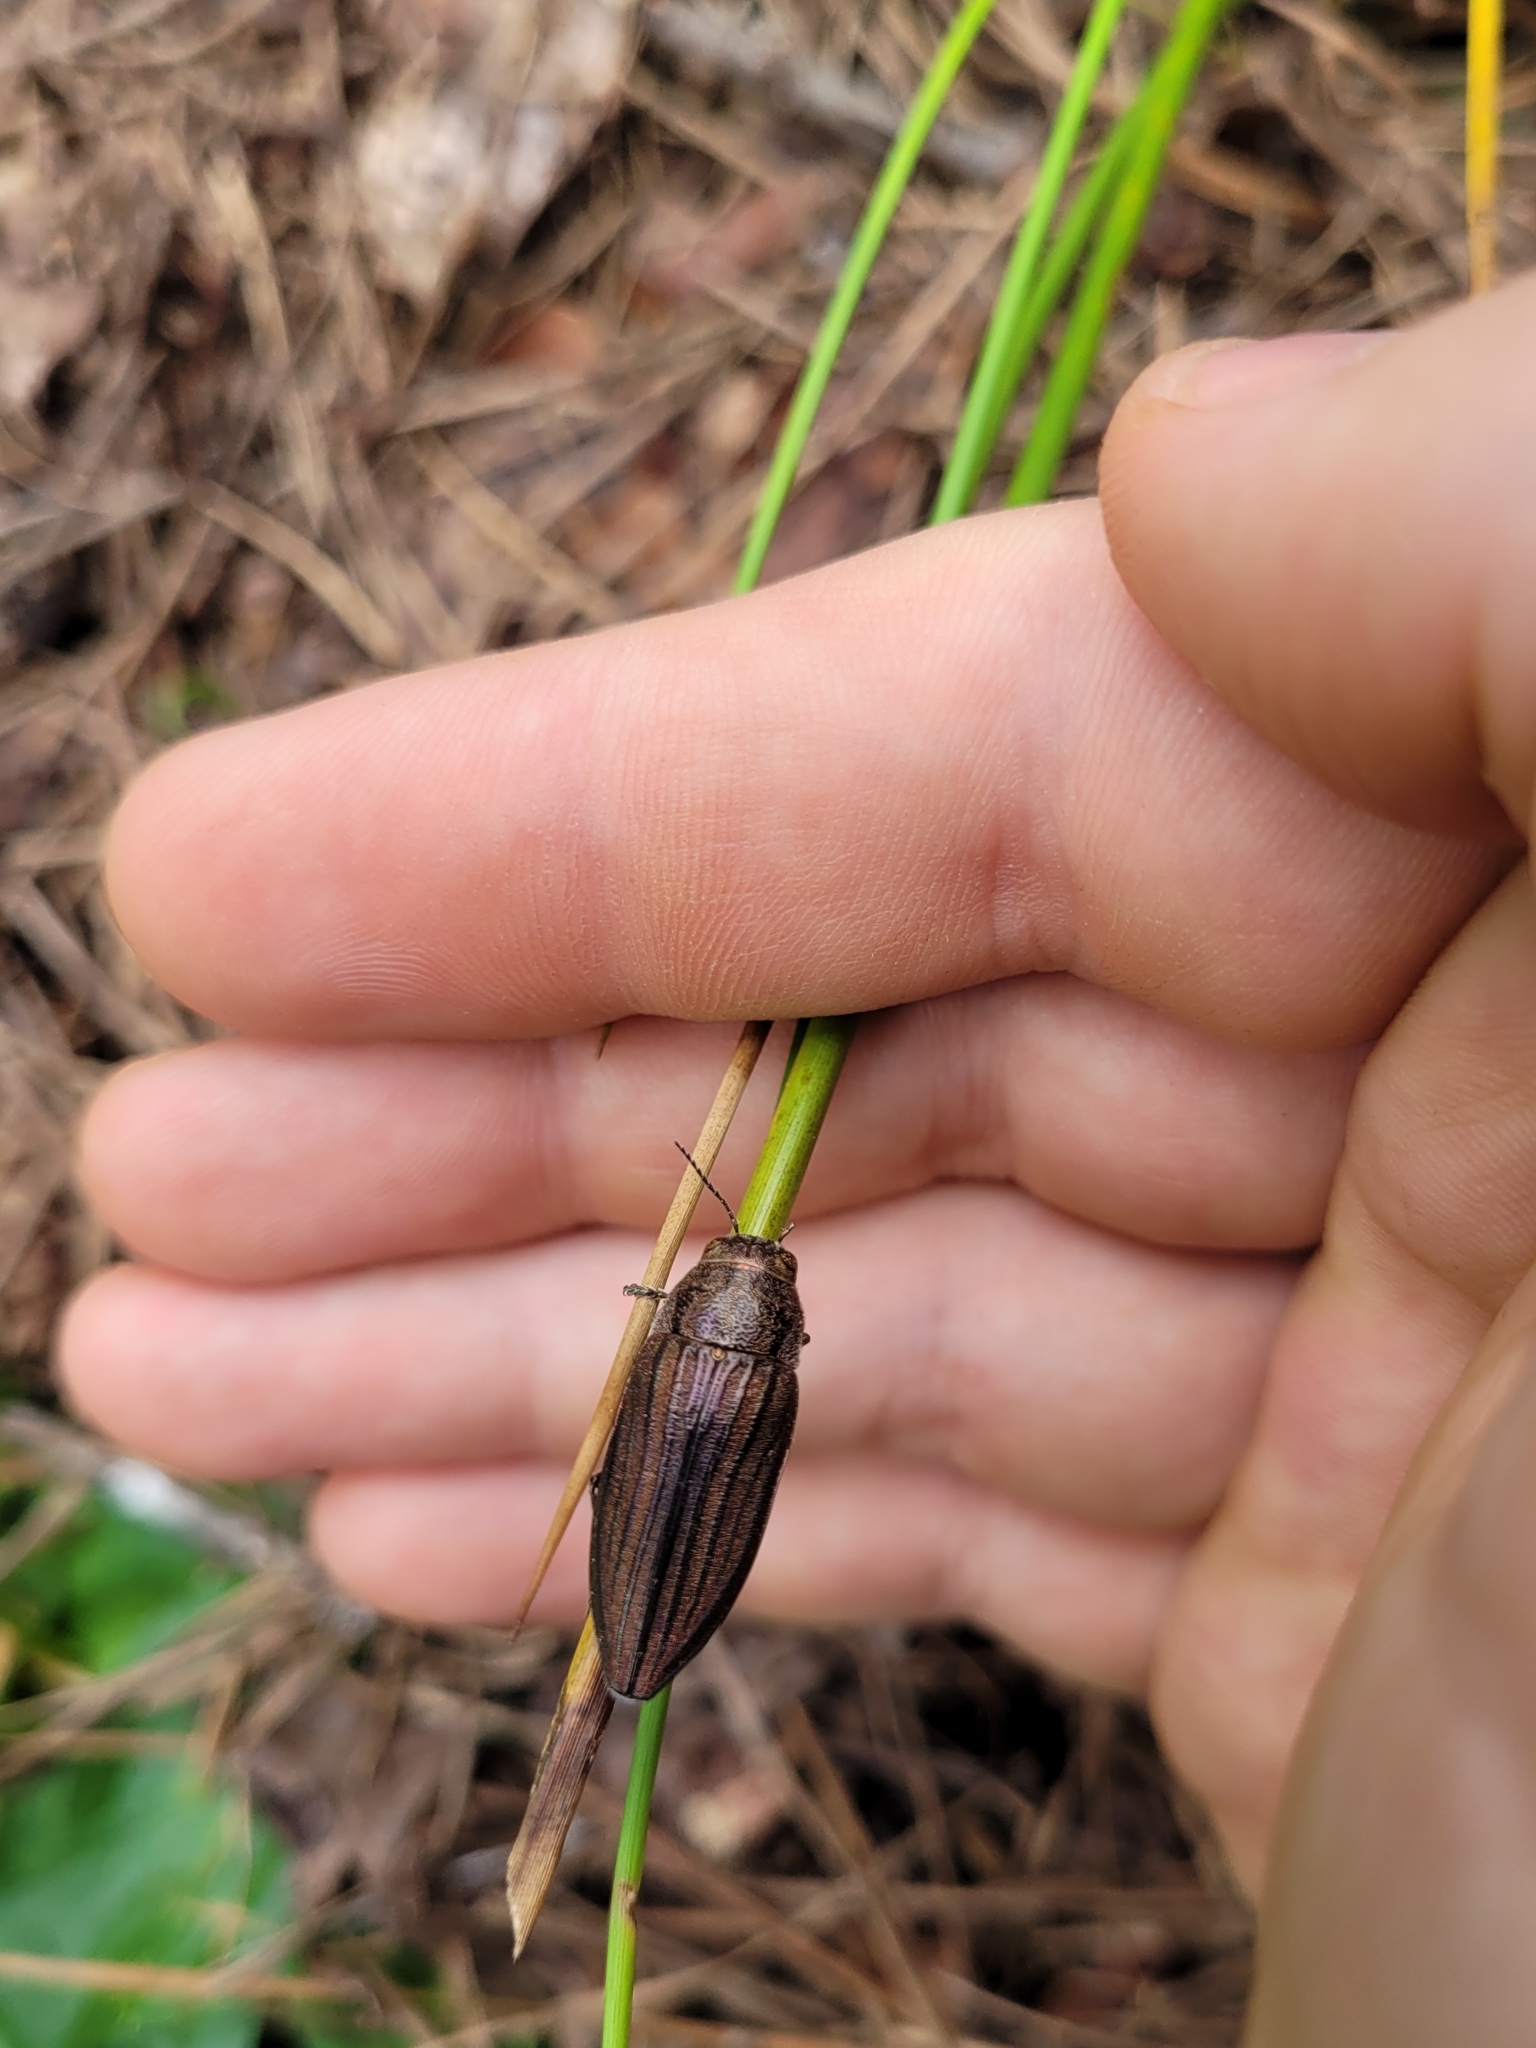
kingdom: Animalia
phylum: Arthropoda
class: Insecta
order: Coleoptera
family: Buprestidae
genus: Buprestis
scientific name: Buprestis striata
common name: Striated jewel beetle
